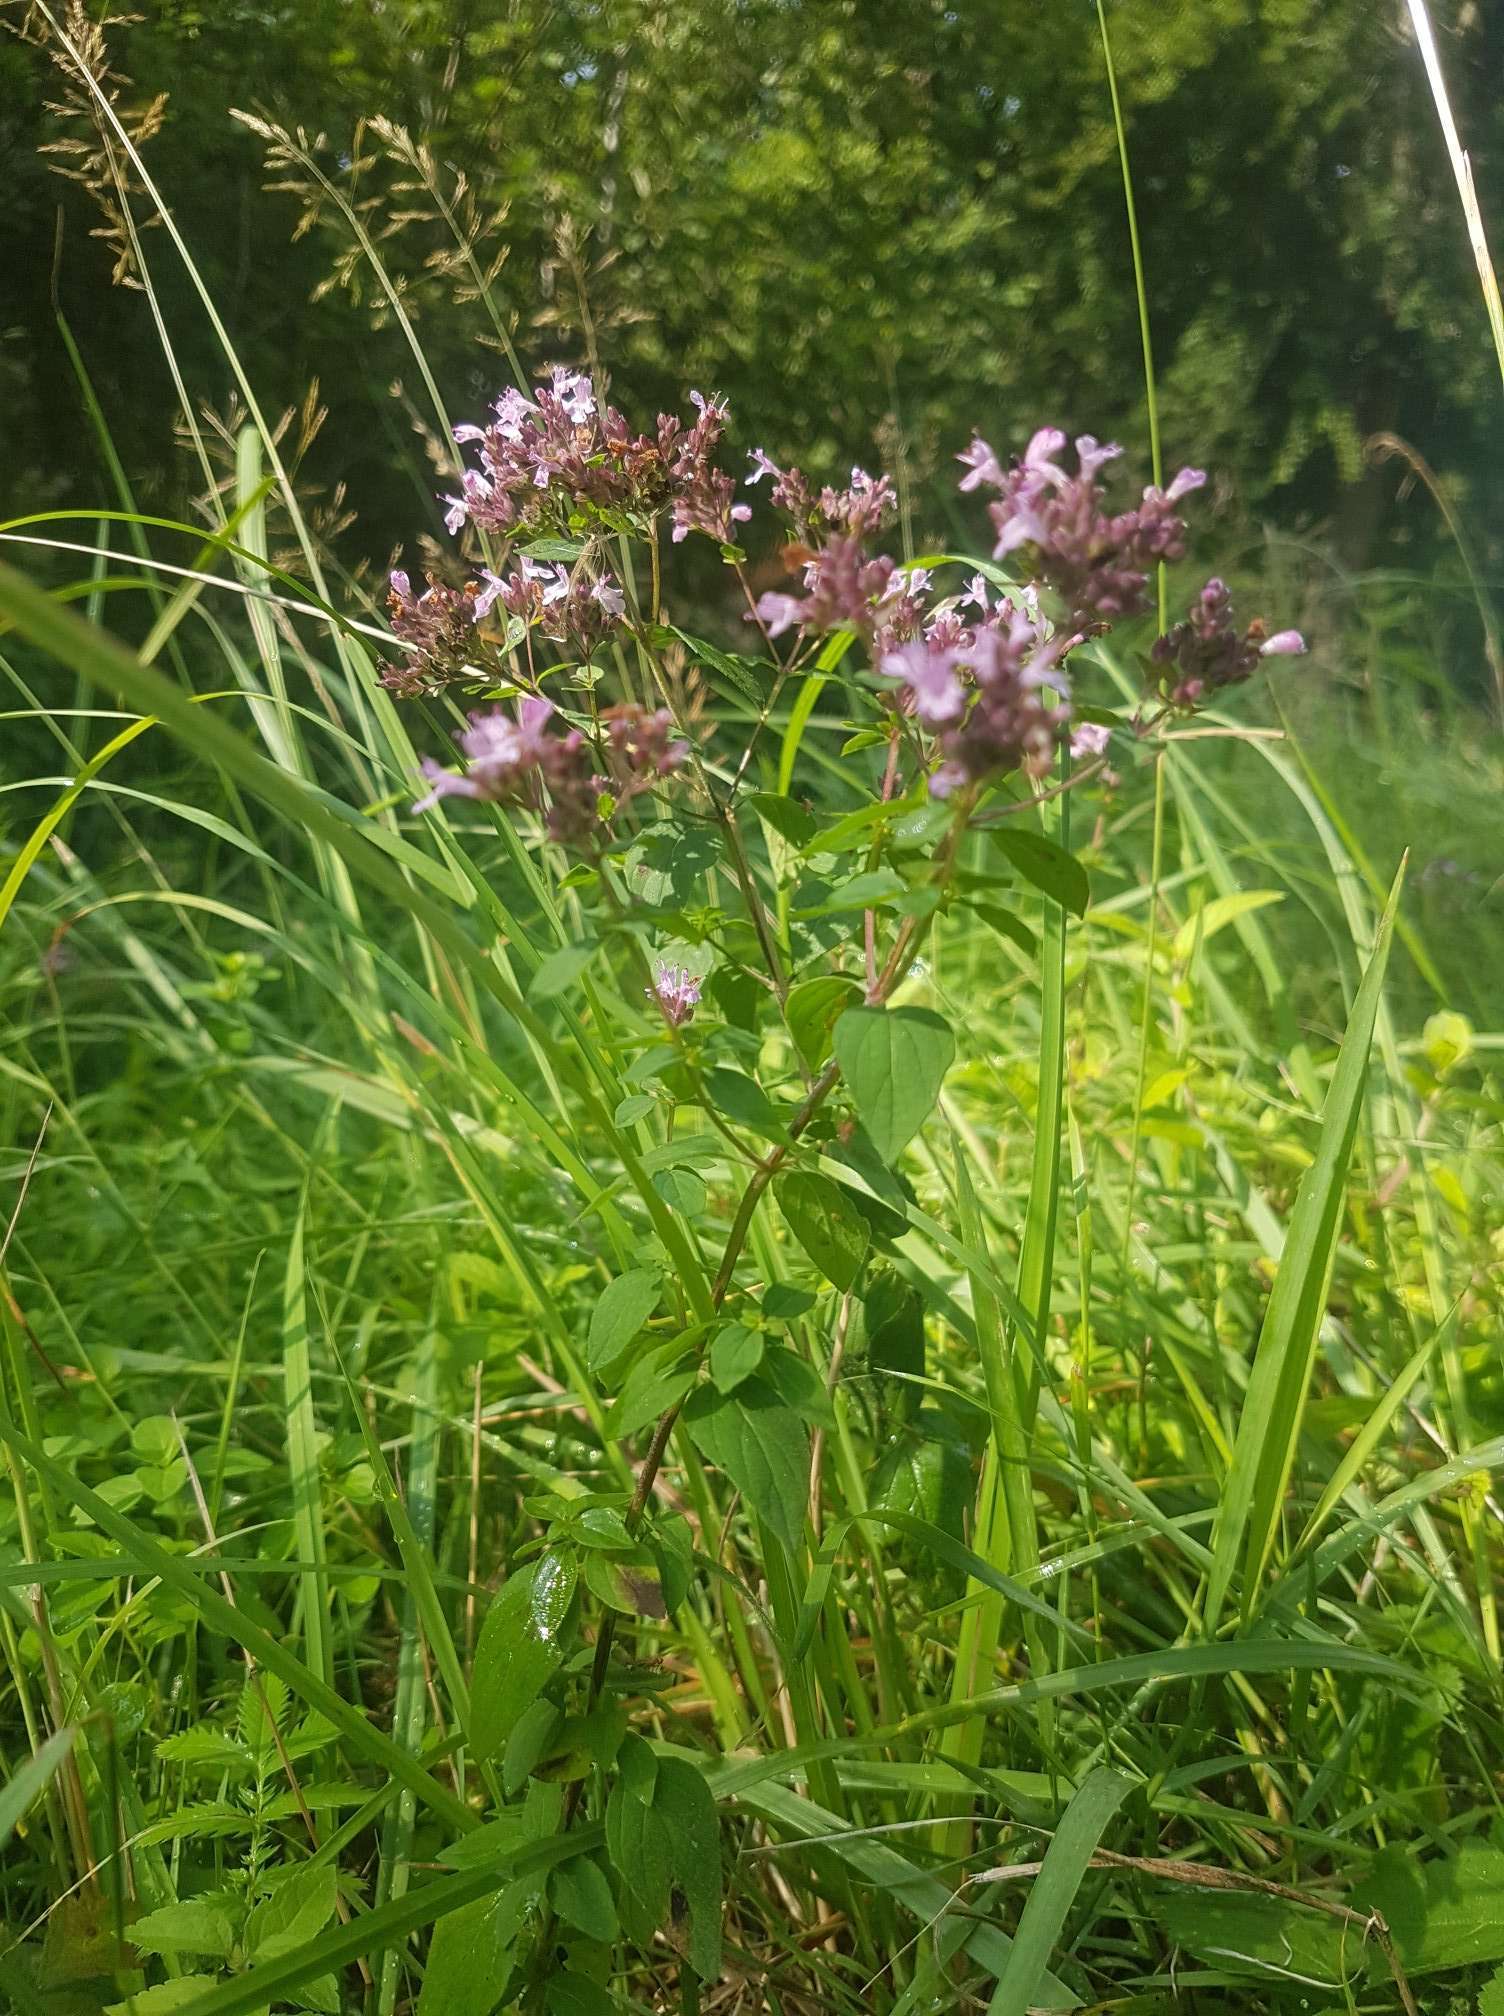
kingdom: Plantae
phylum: Tracheophyta
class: Magnoliopsida
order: Lamiales
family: Lamiaceae
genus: Origanum
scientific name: Origanum vulgare
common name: Wild marjoram
